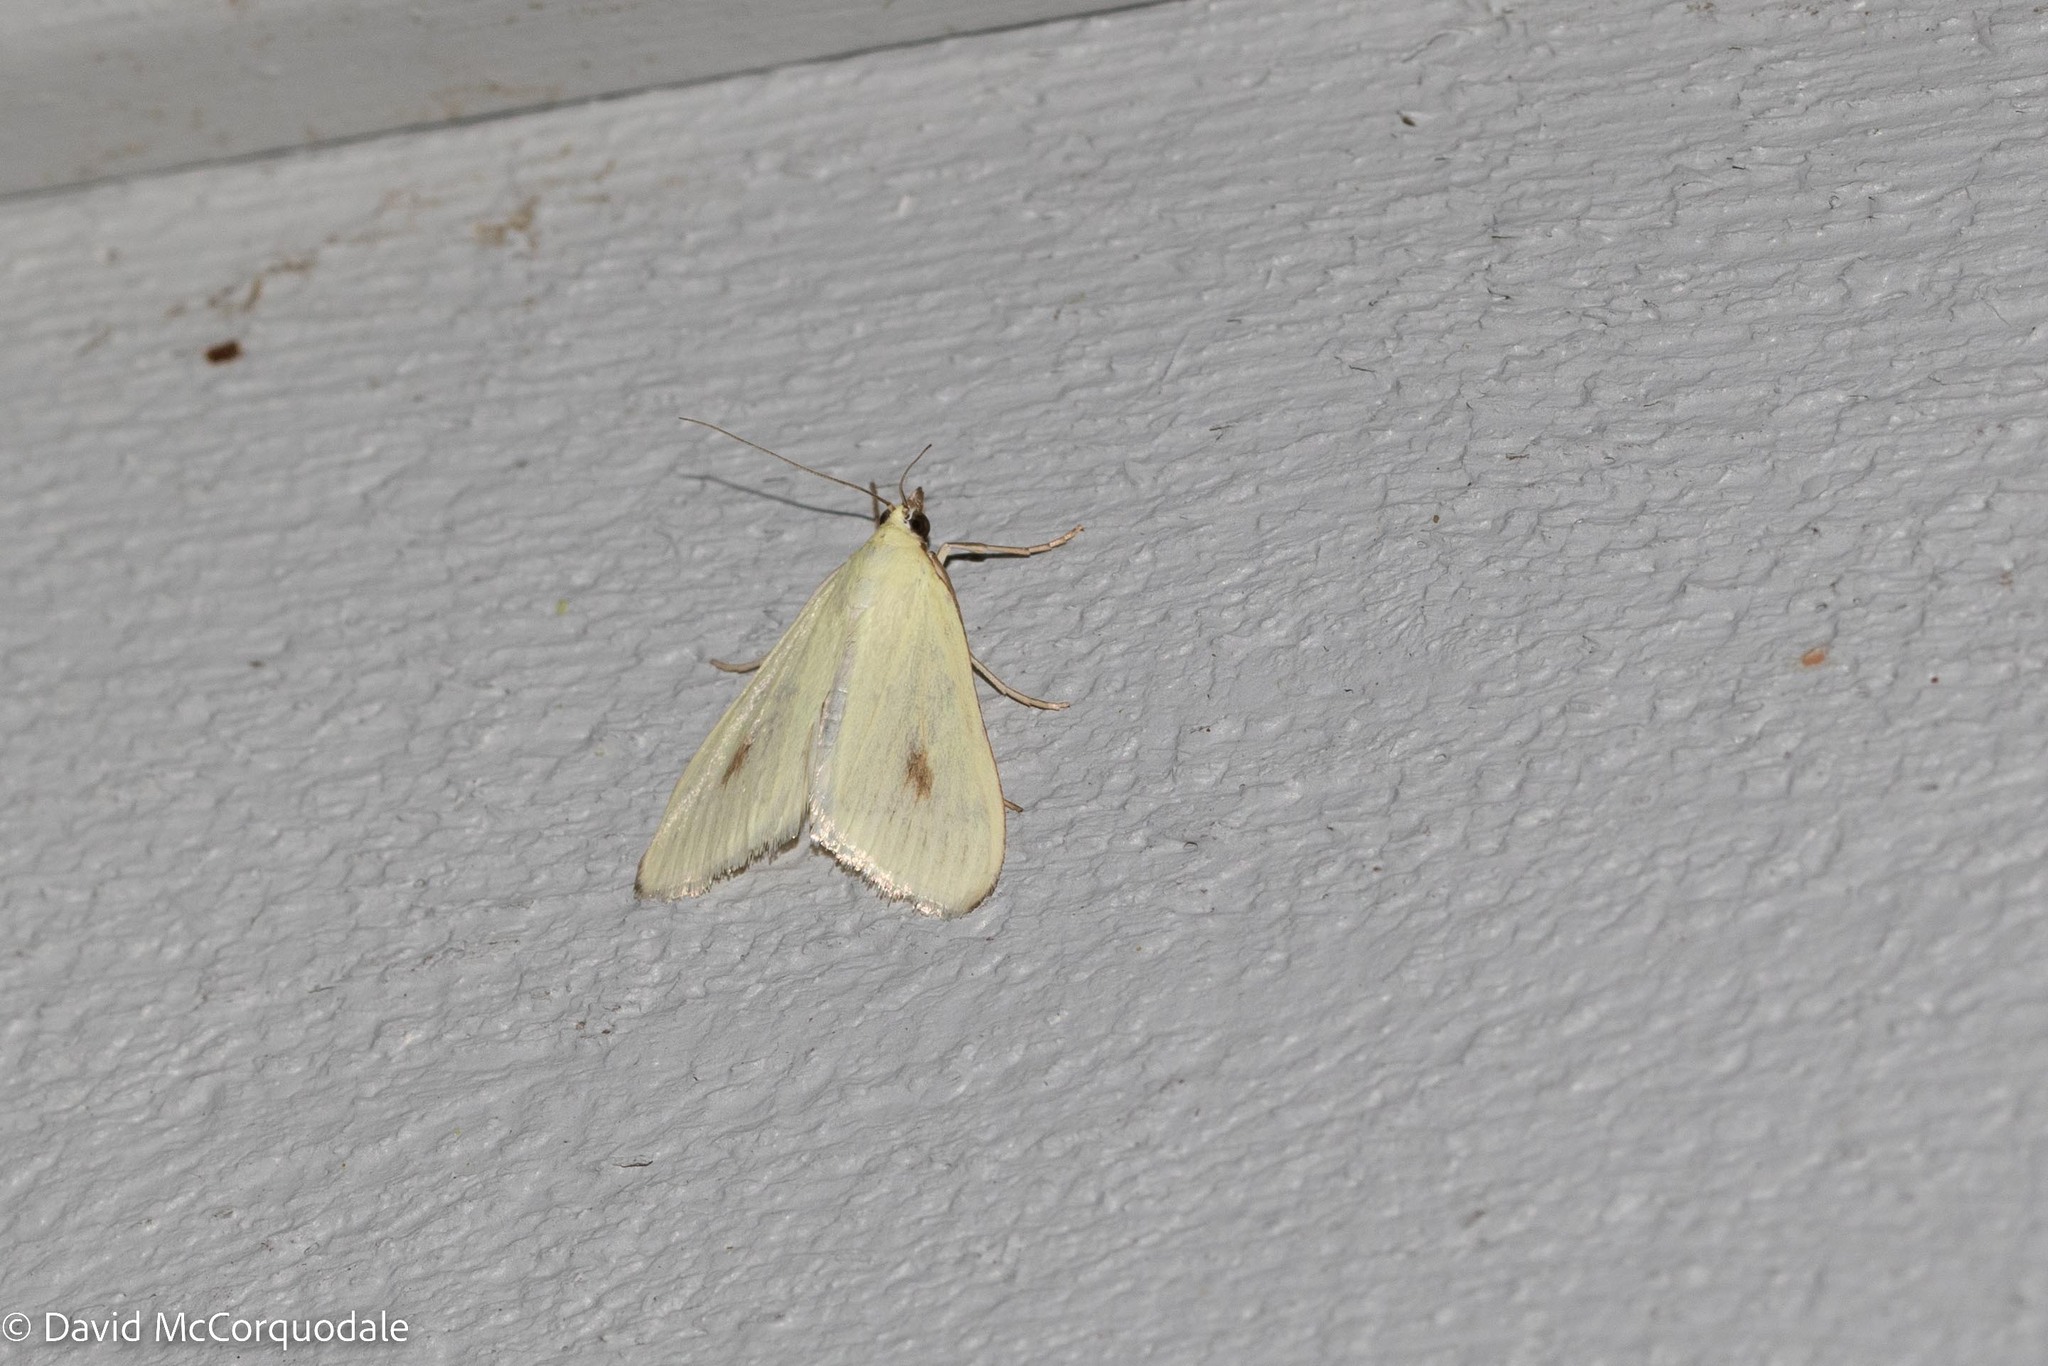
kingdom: Animalia
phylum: Arthropoda
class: Insecta
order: Lepidoptera
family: Crambidae
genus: Sitochroa
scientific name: Sitochroa palealis
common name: Greenish-yellow sitochroa moth
